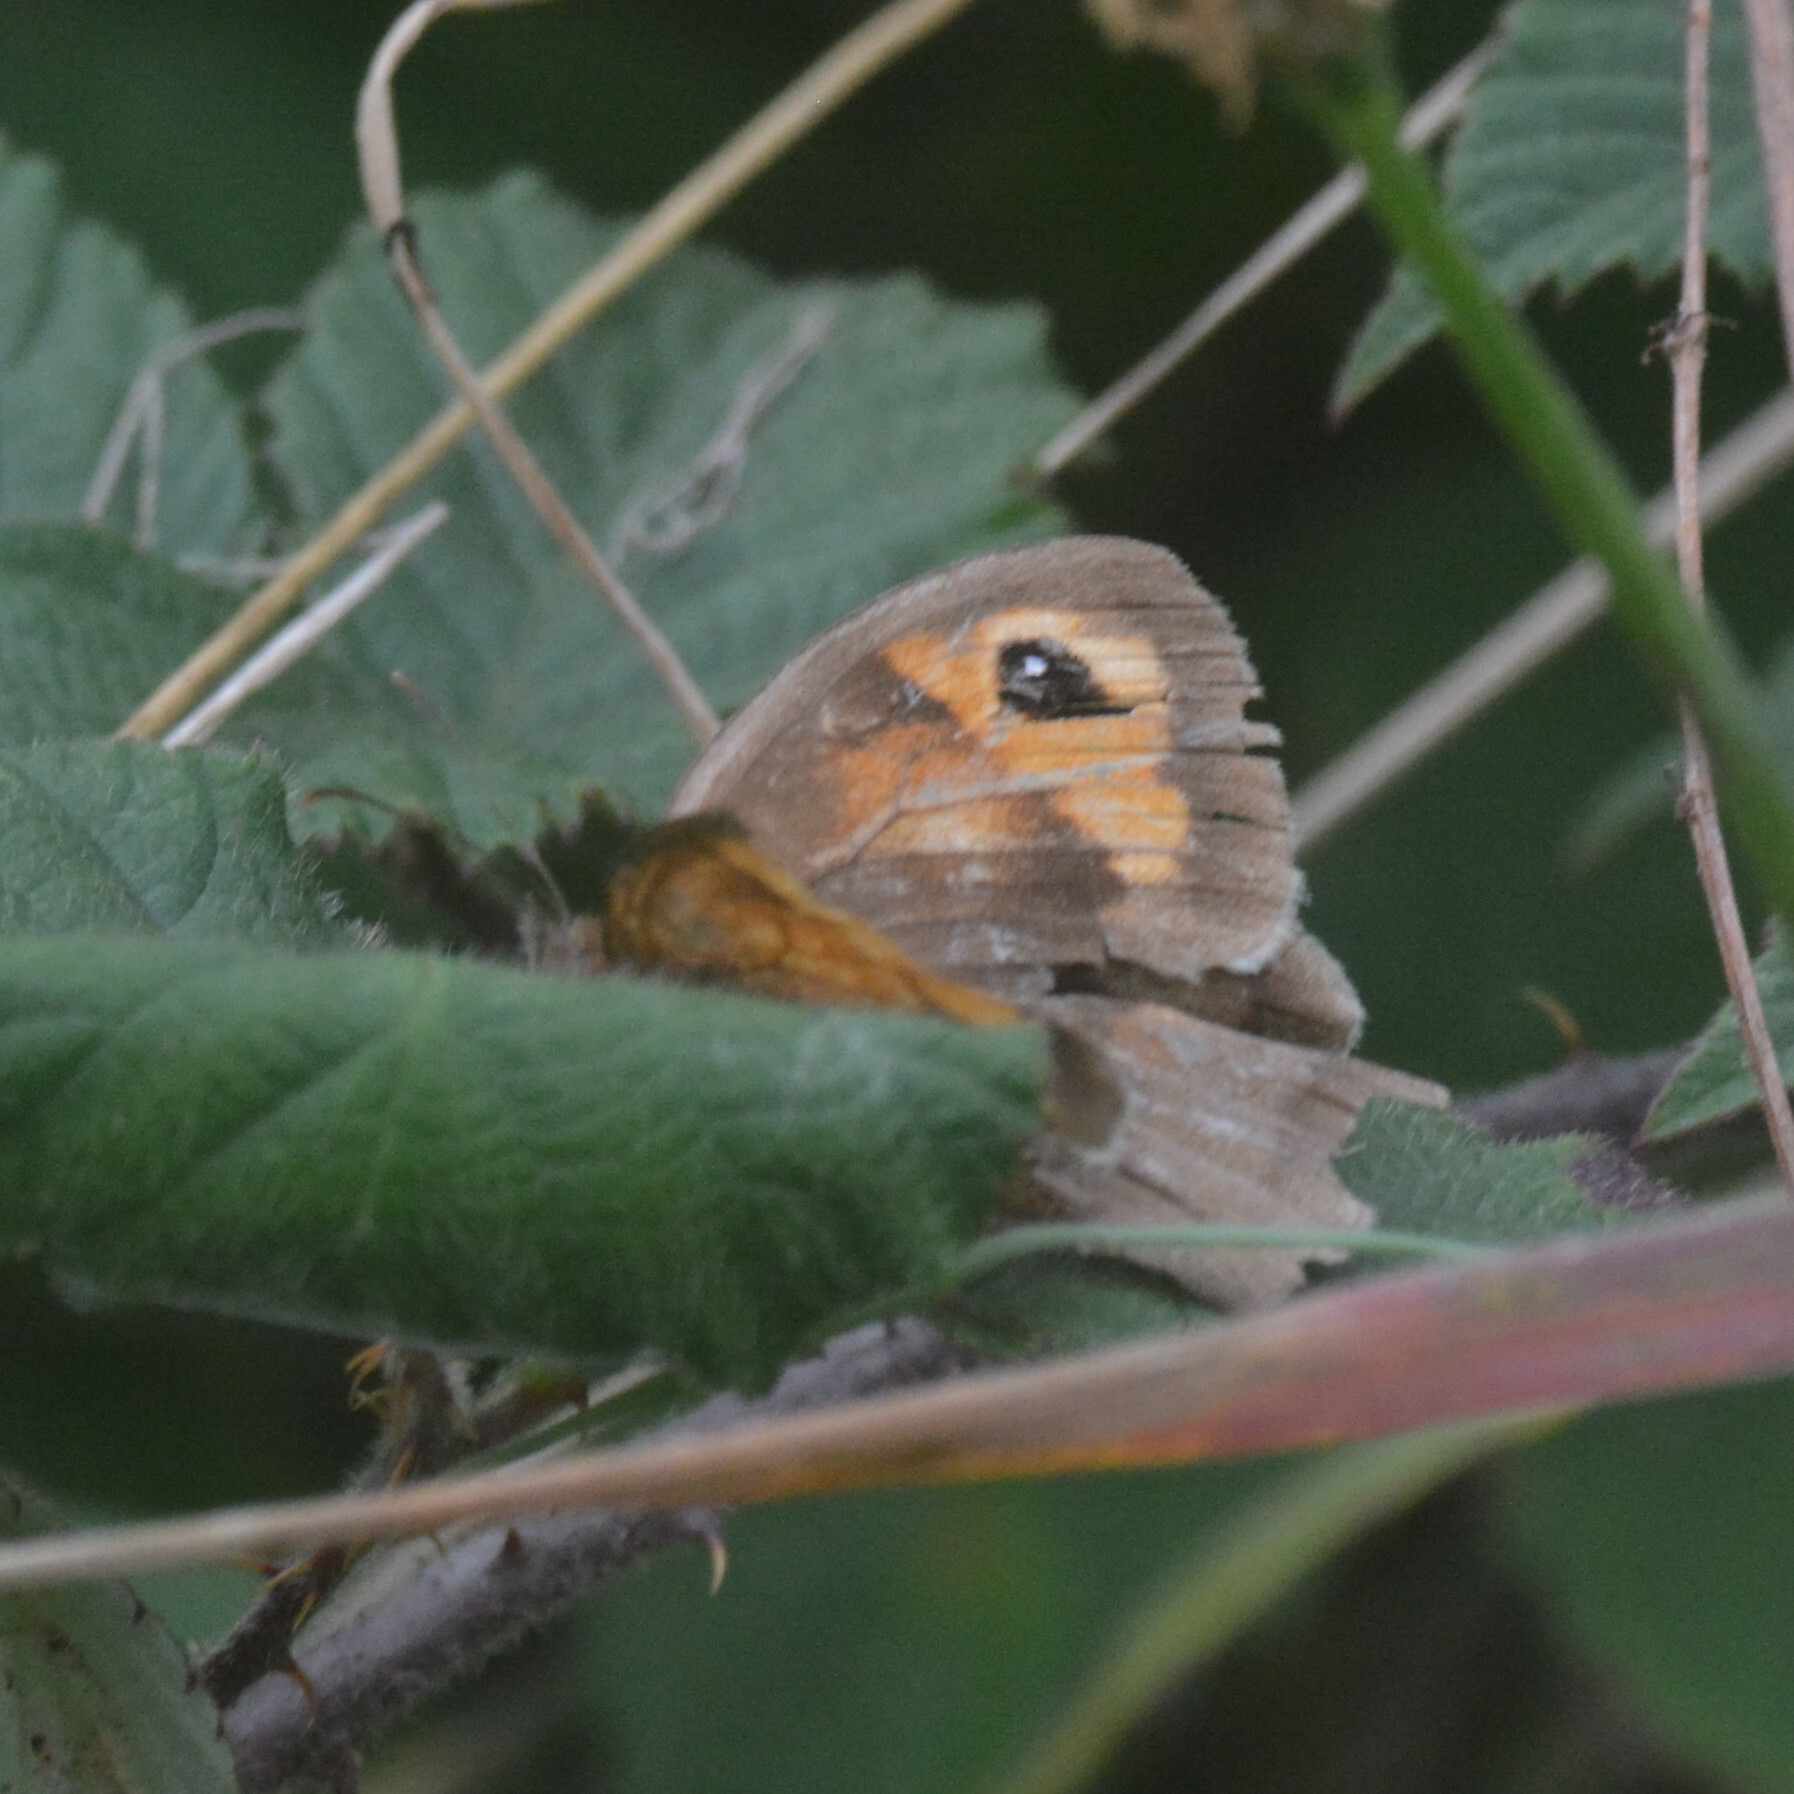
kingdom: Animalia
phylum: Arthropoda
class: Insecta
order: Lepidoptera
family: Nymphalidae
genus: Maniola
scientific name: Maniola jurtina
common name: Meadow brown
